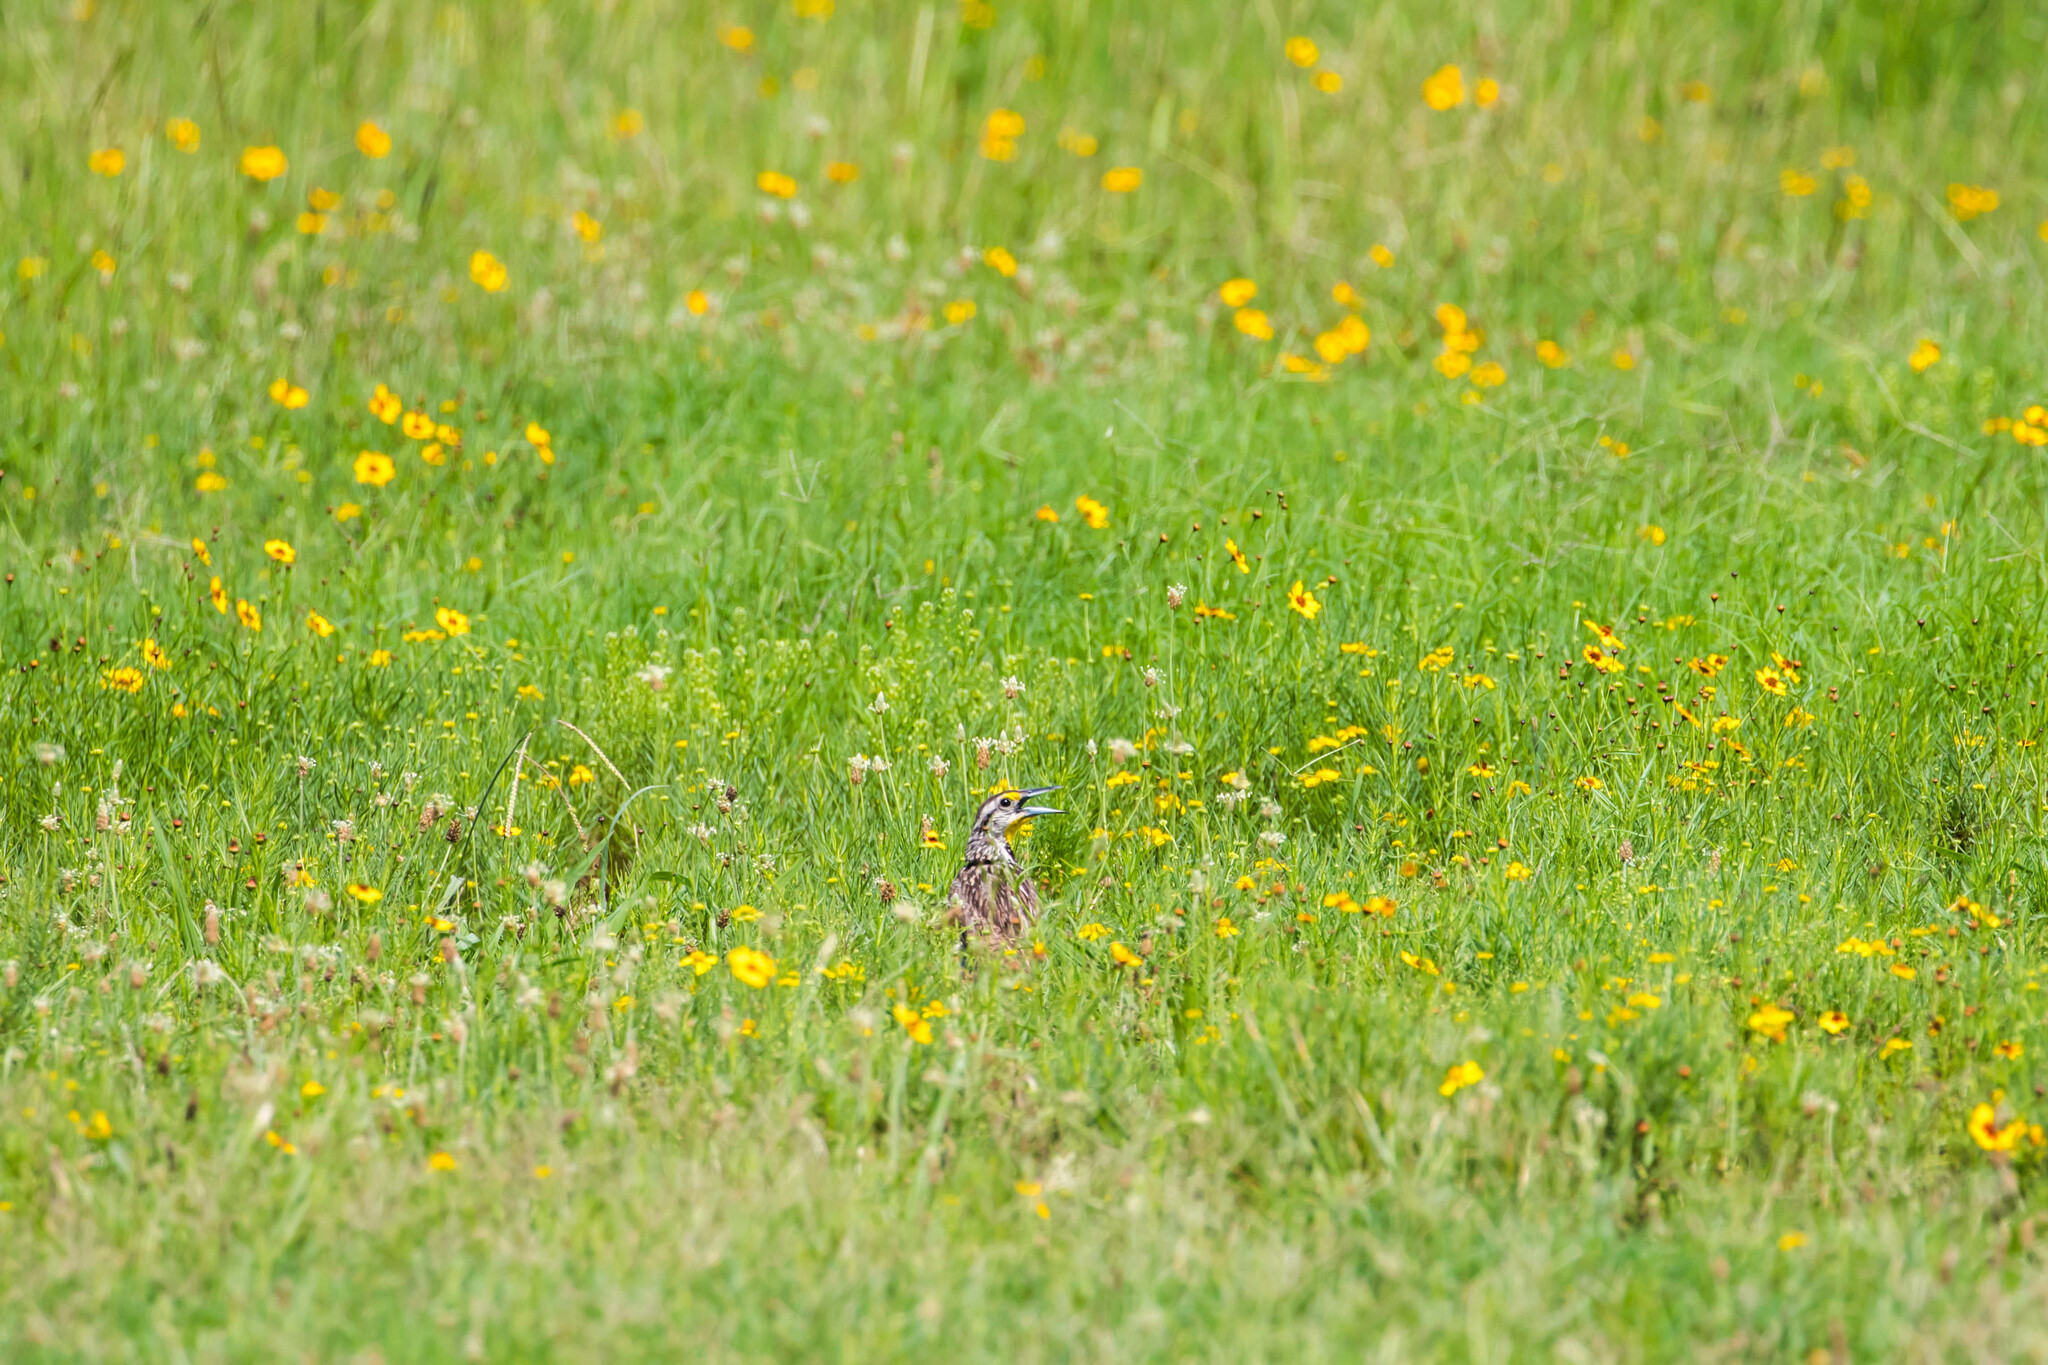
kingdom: Animalia
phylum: Chordata
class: Aves
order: Passeriformes
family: Icteridae
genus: Sturnella
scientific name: Sturnella magna
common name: Eastern meadowlark
